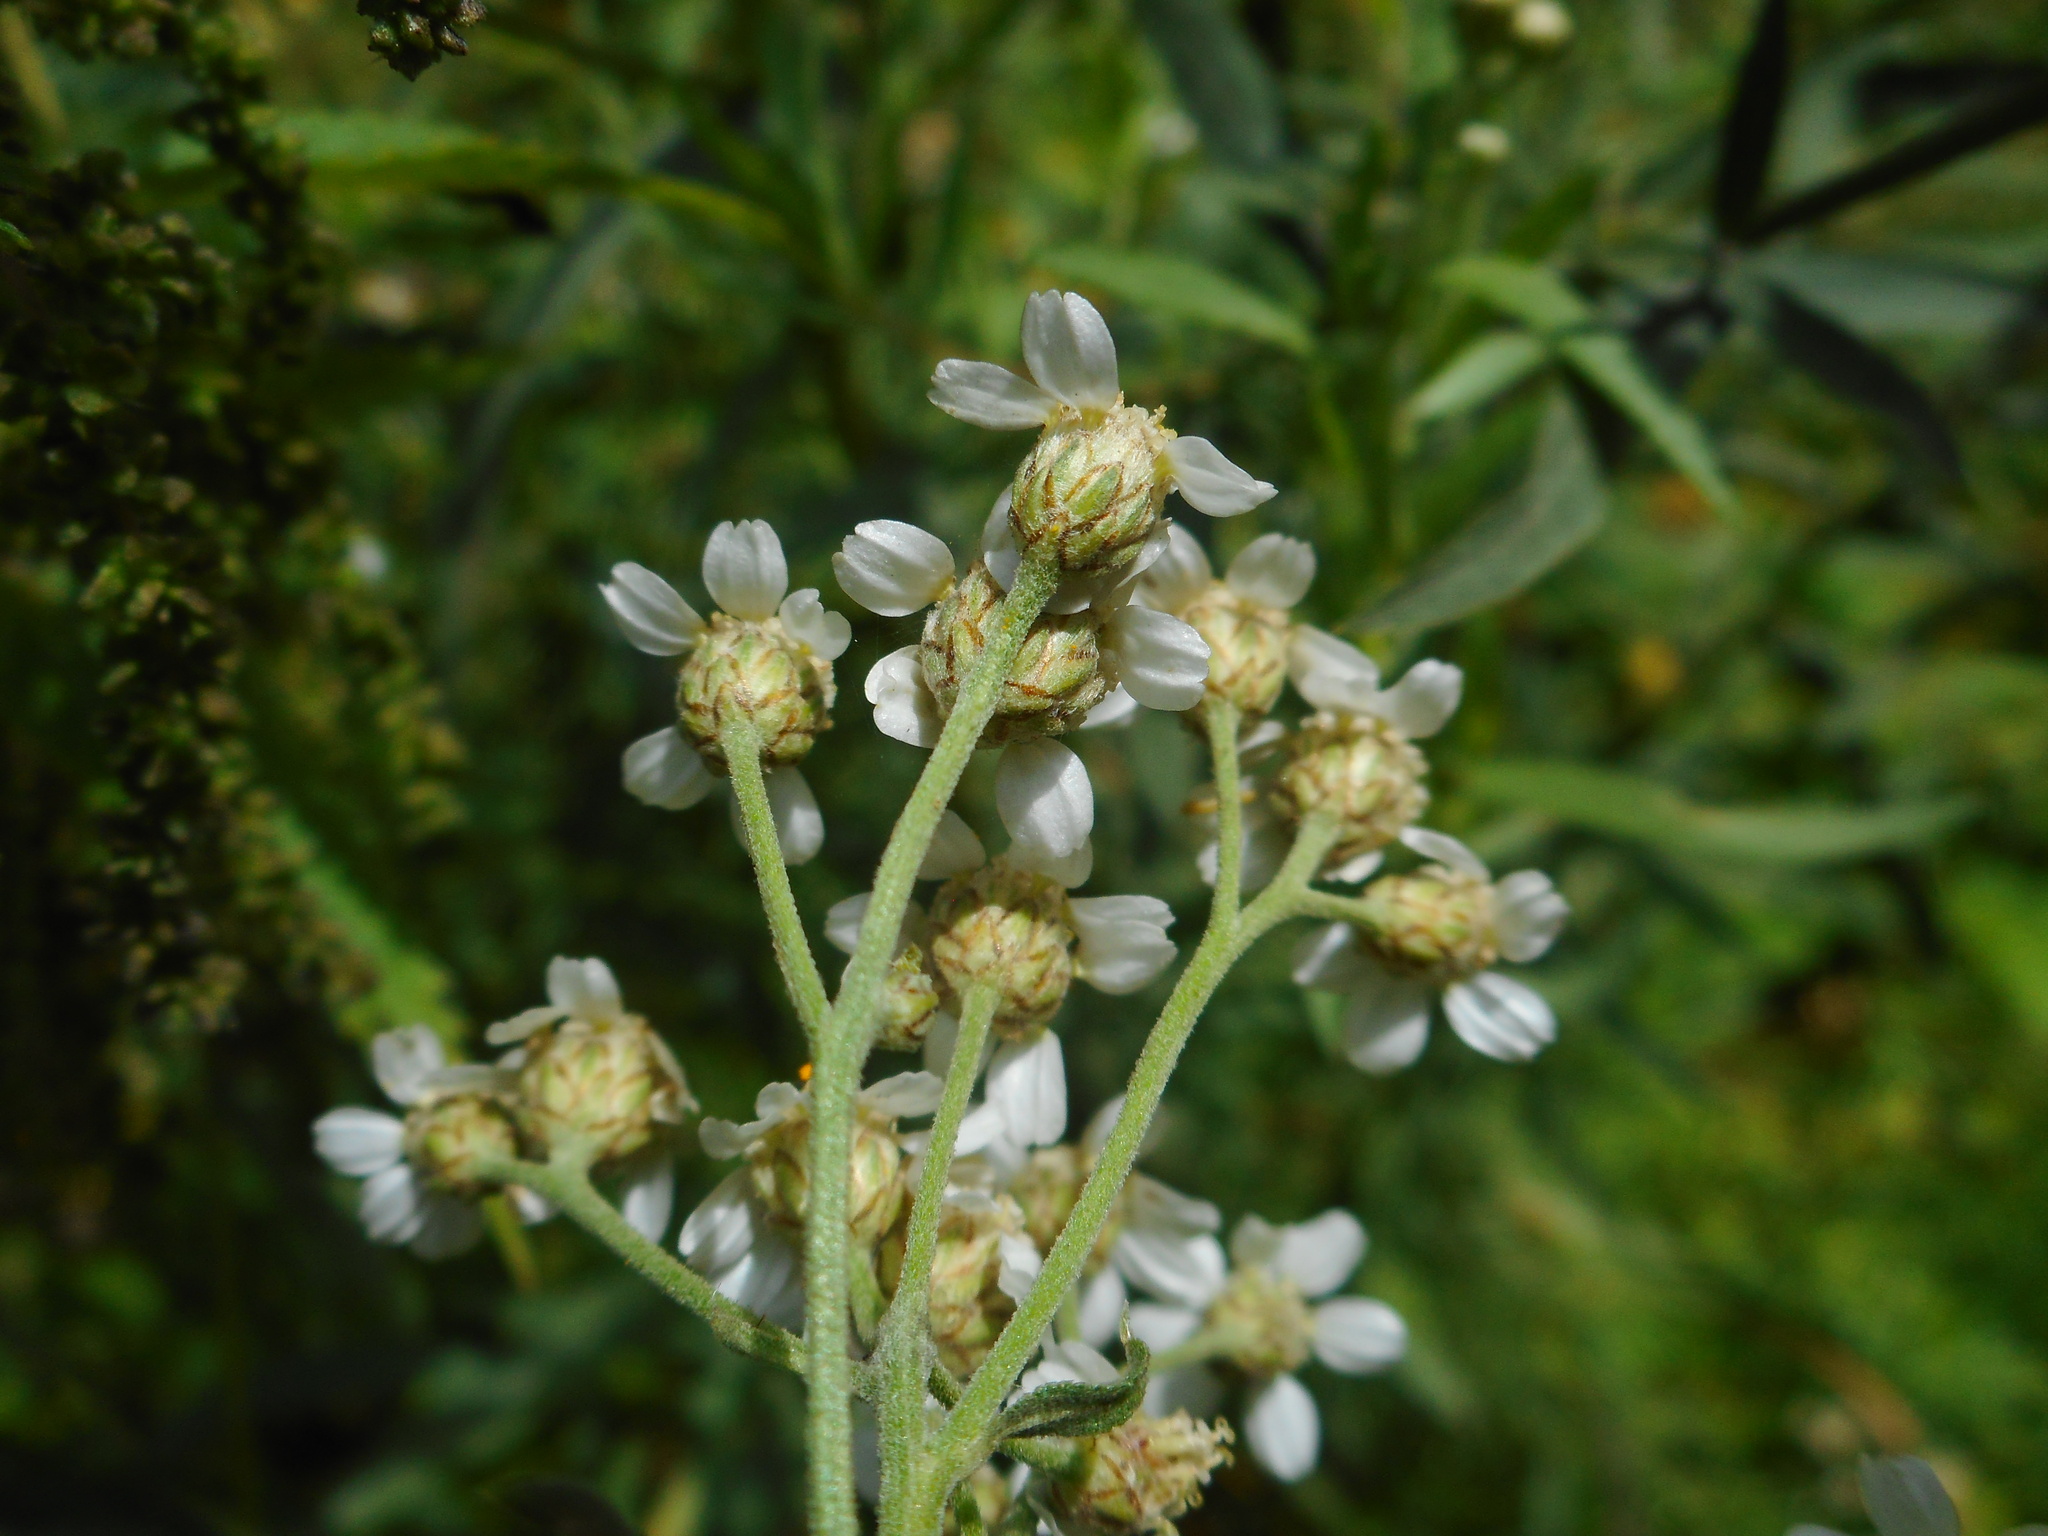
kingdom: Plantae
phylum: Tracheophyta
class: Magnoliopsida
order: Asterales
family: Asteraceae
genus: Achillea
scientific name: Achillea salicifolia
